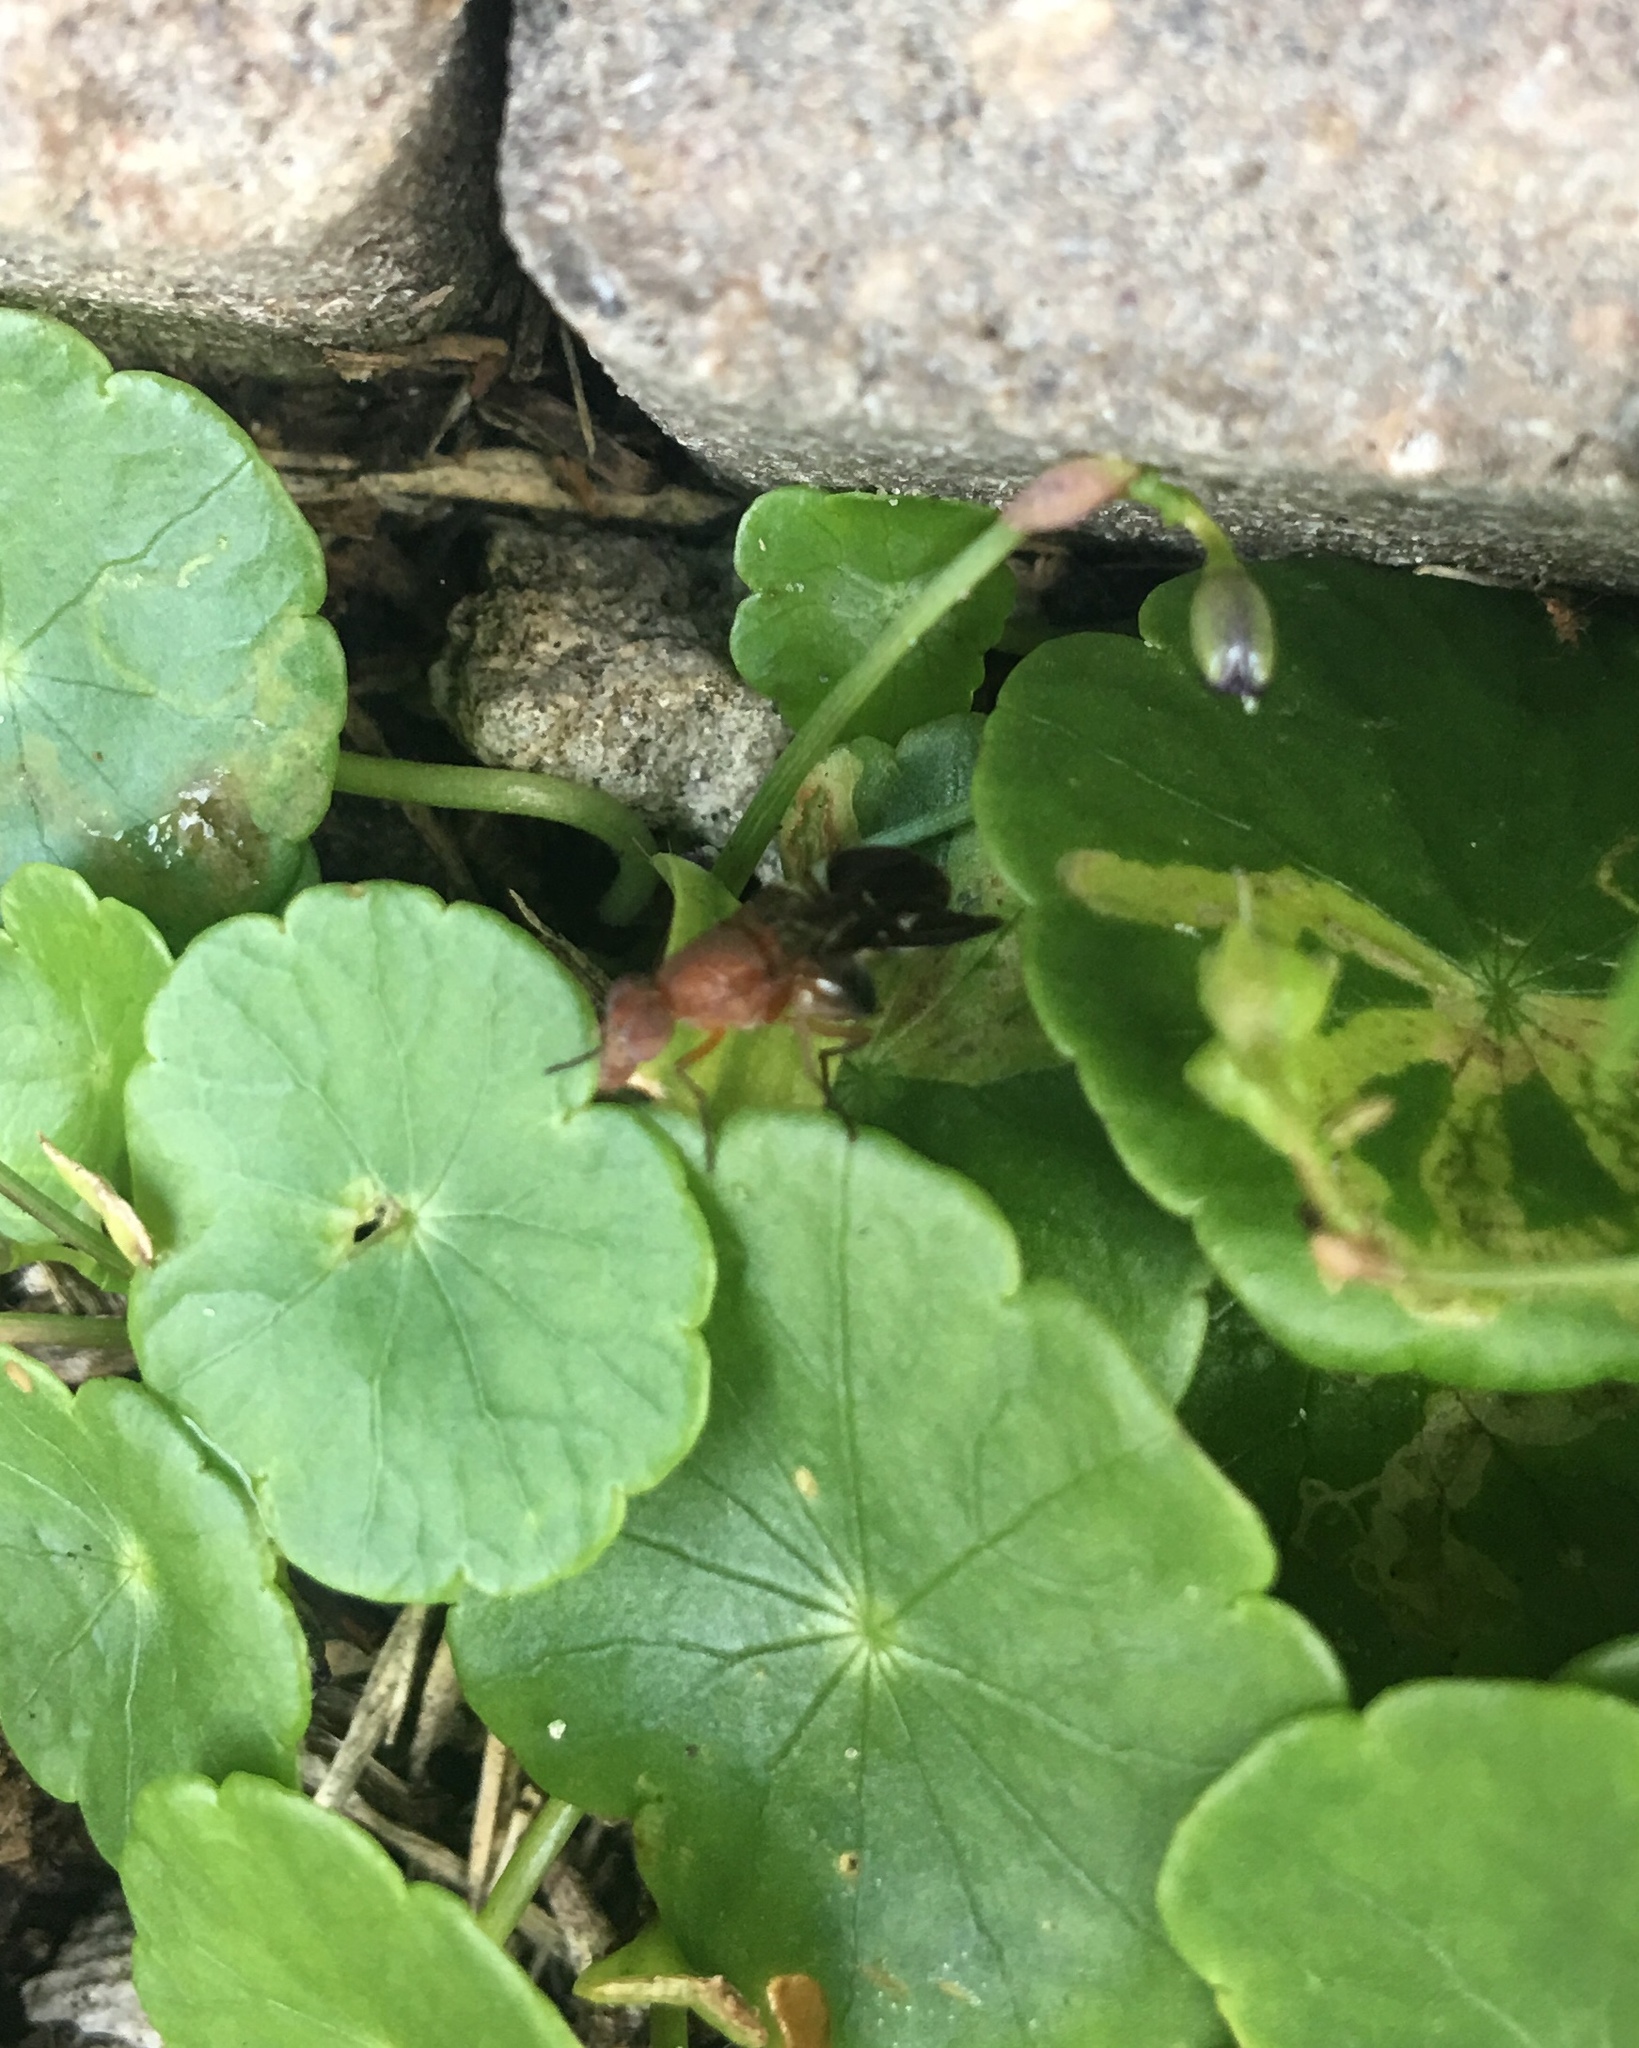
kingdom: Animalia
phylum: Arthropoda
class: Insecta
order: Diptera
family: Ulidiidae
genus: Delphinia
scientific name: Delphinia picta
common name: Common picture-winged fly
